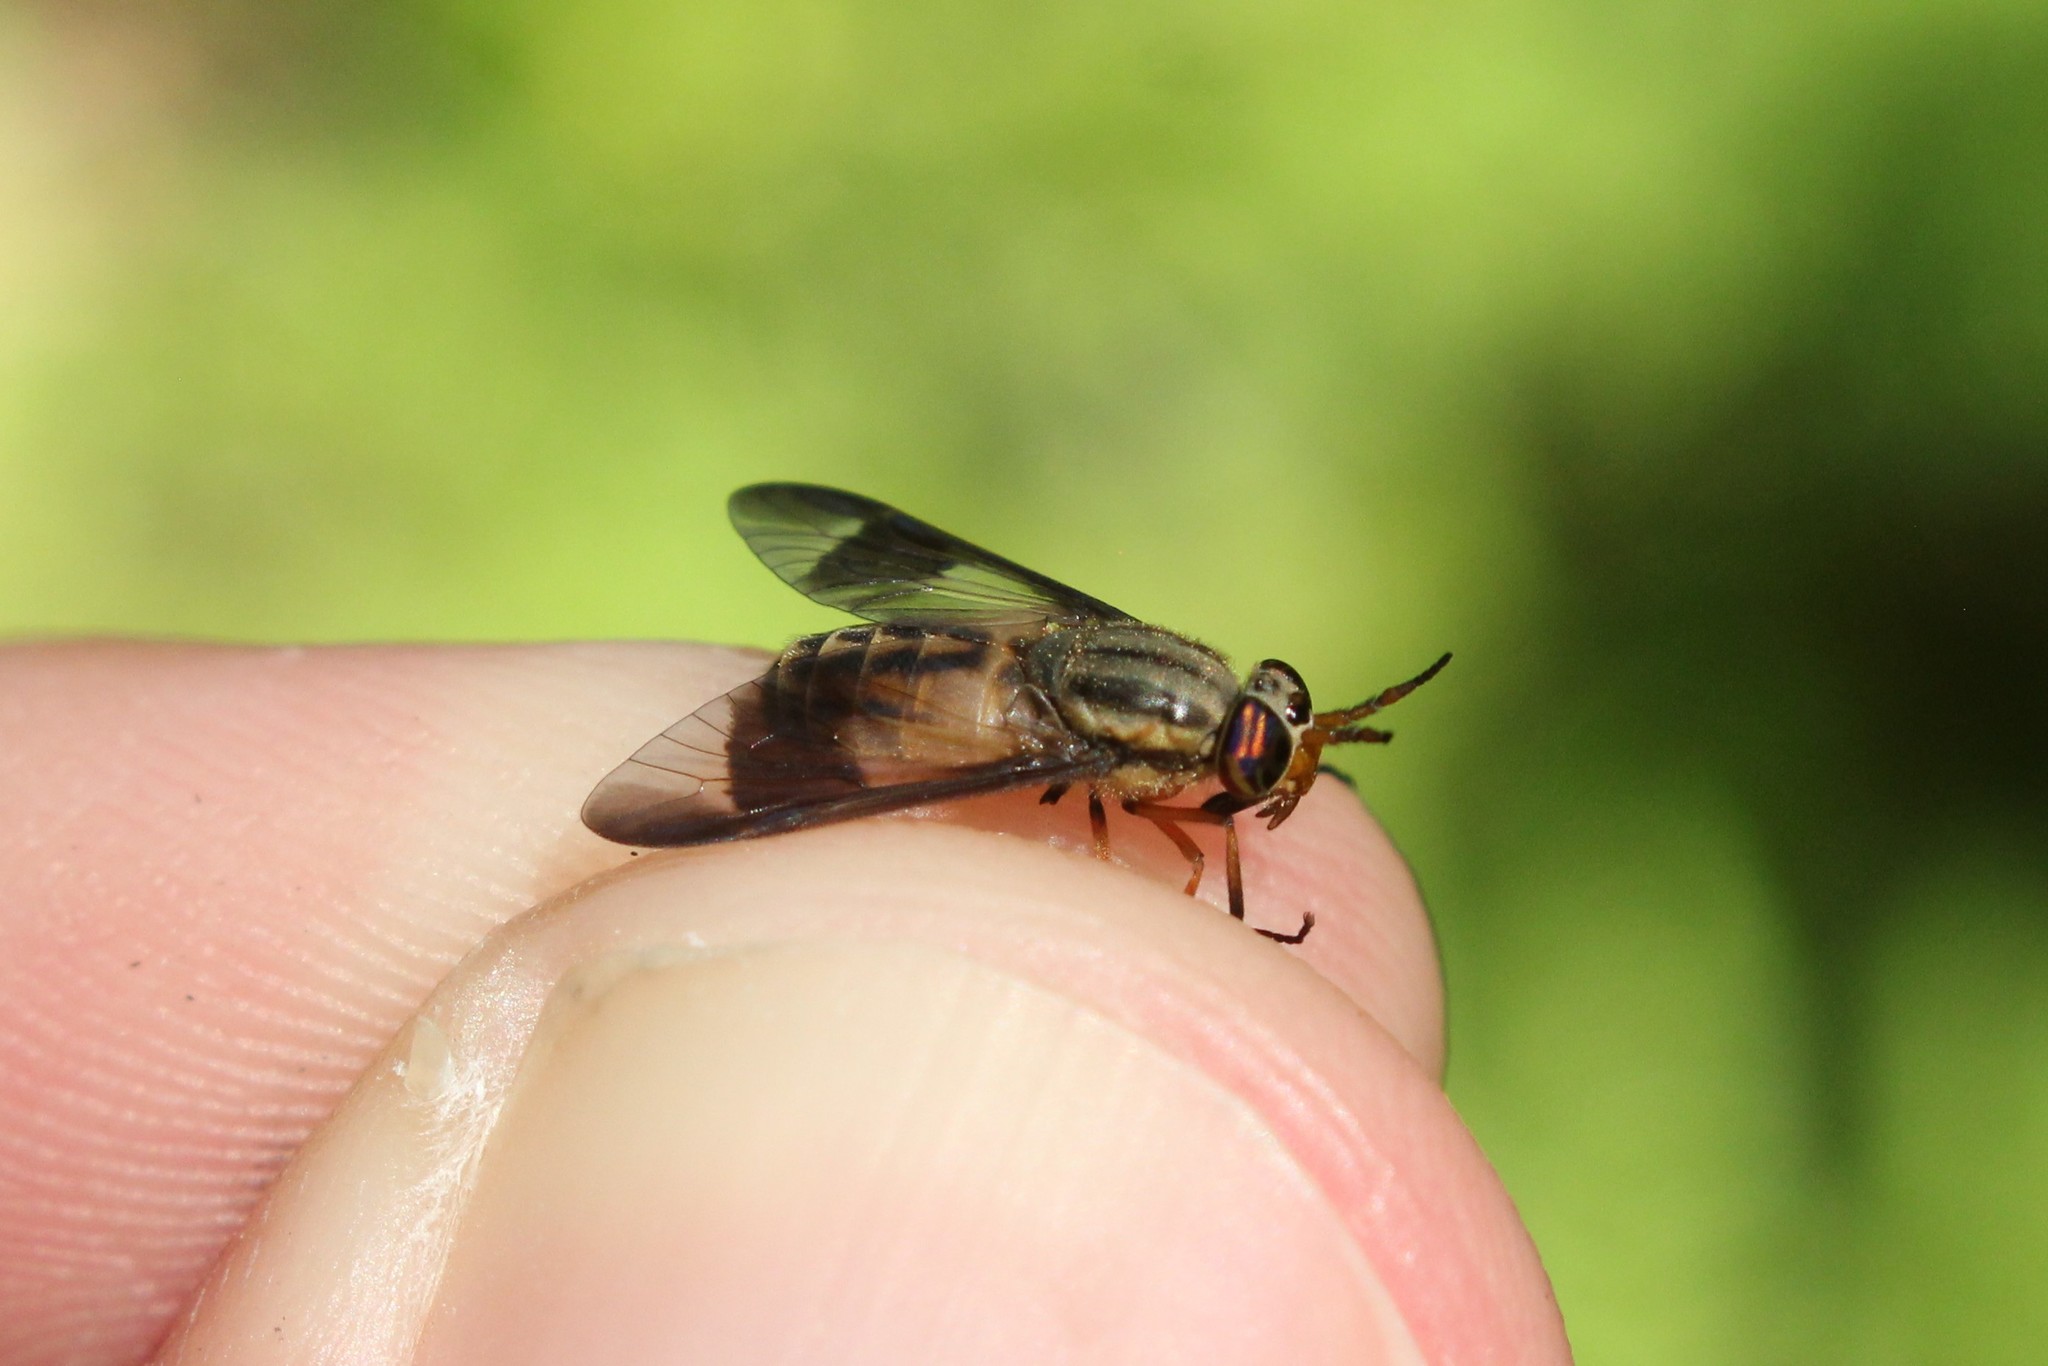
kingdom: Animalia
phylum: Arthropoda
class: Insecta
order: Diptera
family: Tabanidae
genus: Chrysops
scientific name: Chrysops montanus
